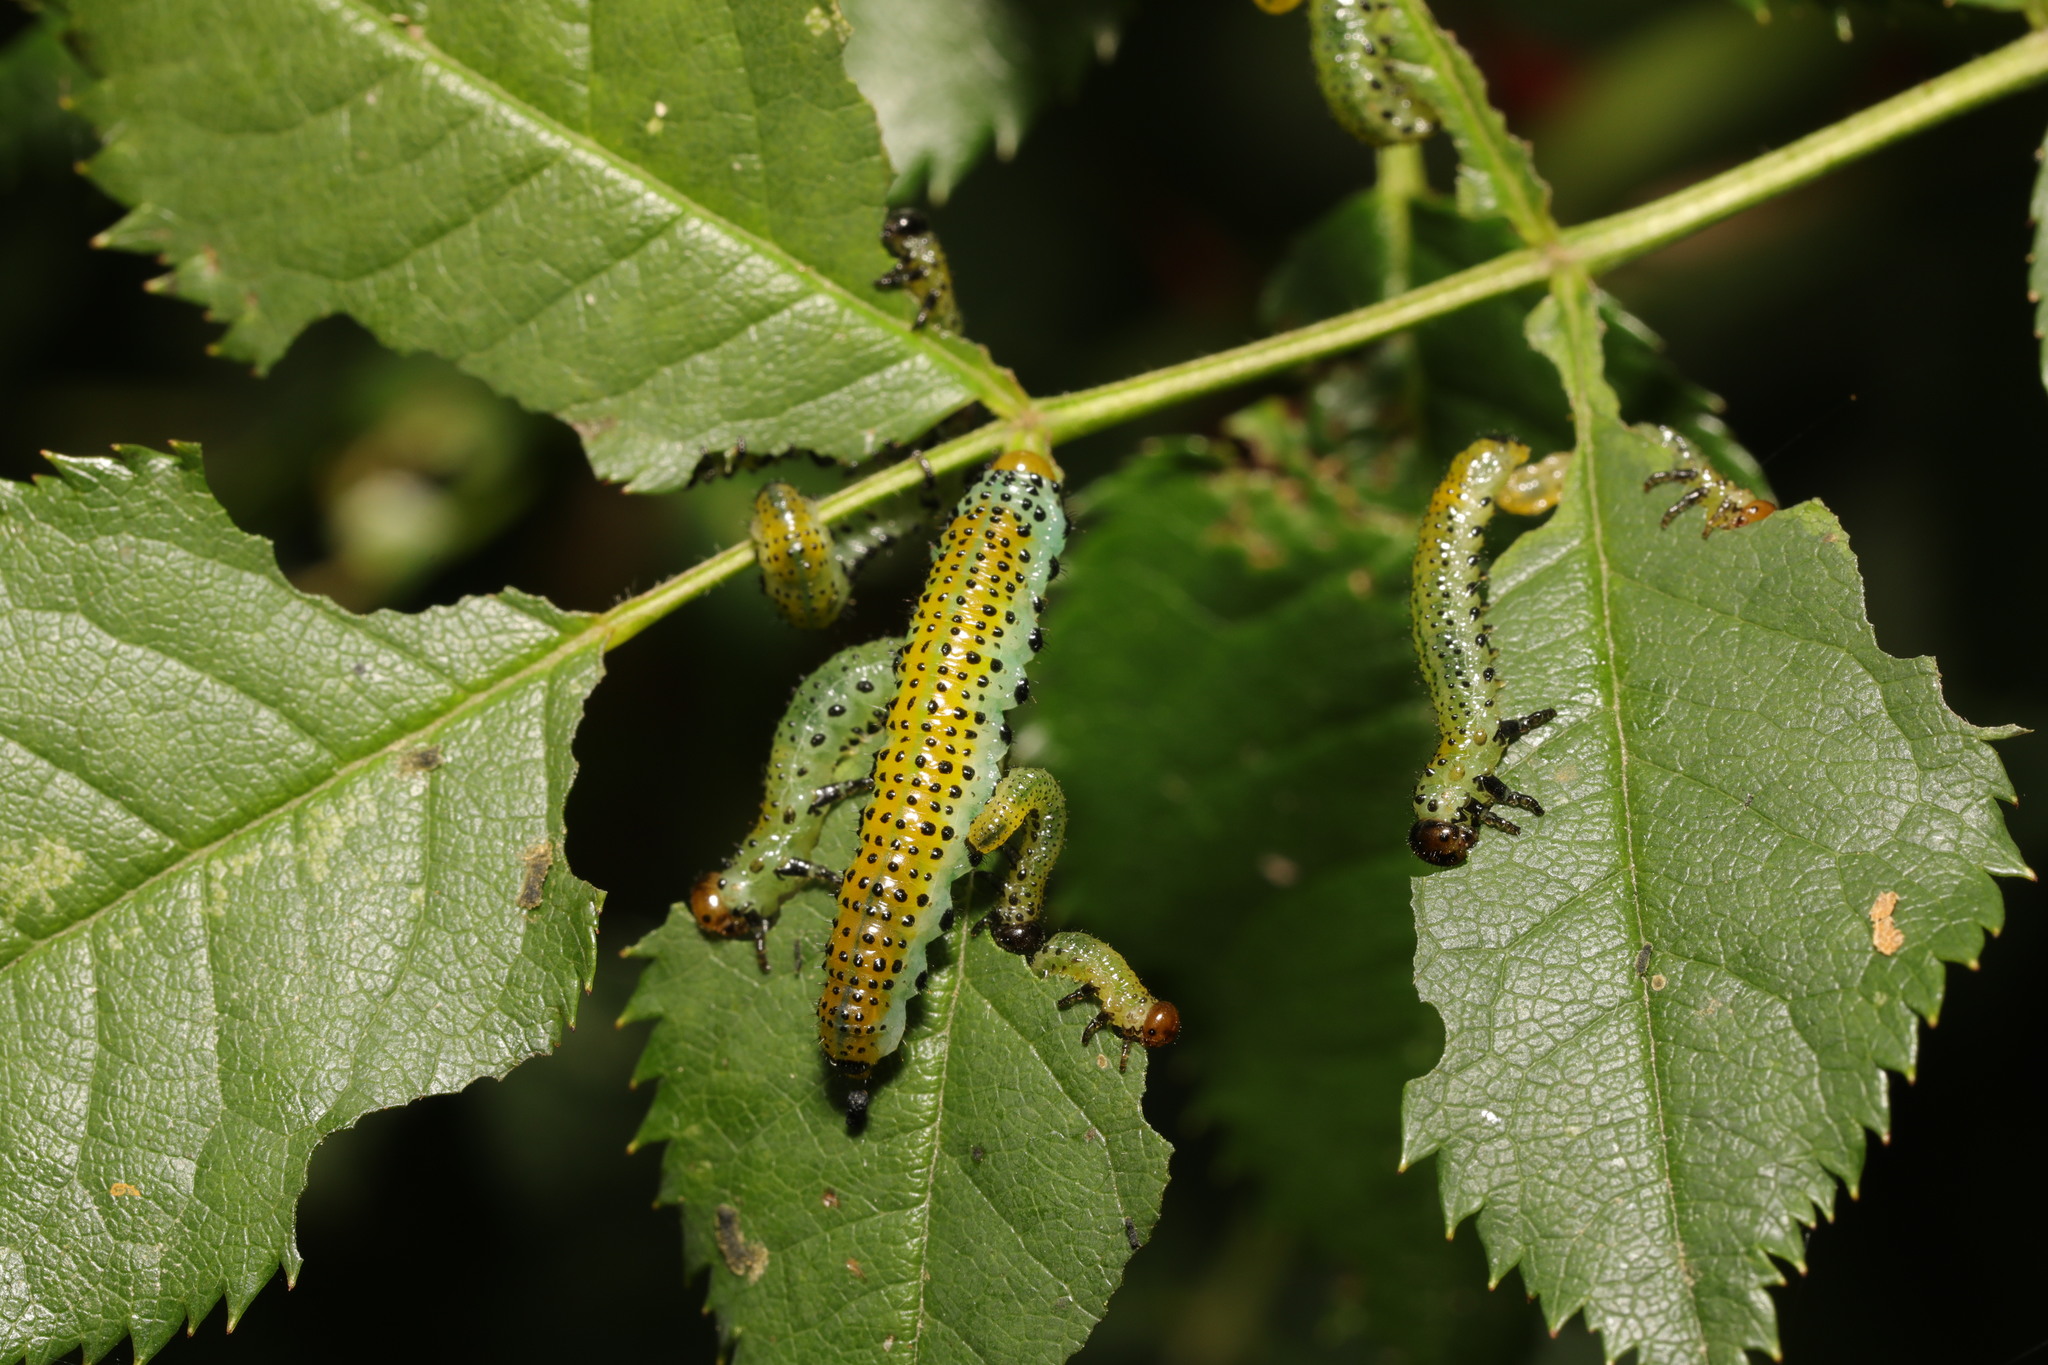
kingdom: Animalia
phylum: Arthropoda
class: Insecta
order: Hymenoptera
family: Argidae
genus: Arge
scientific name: Arge pagana
